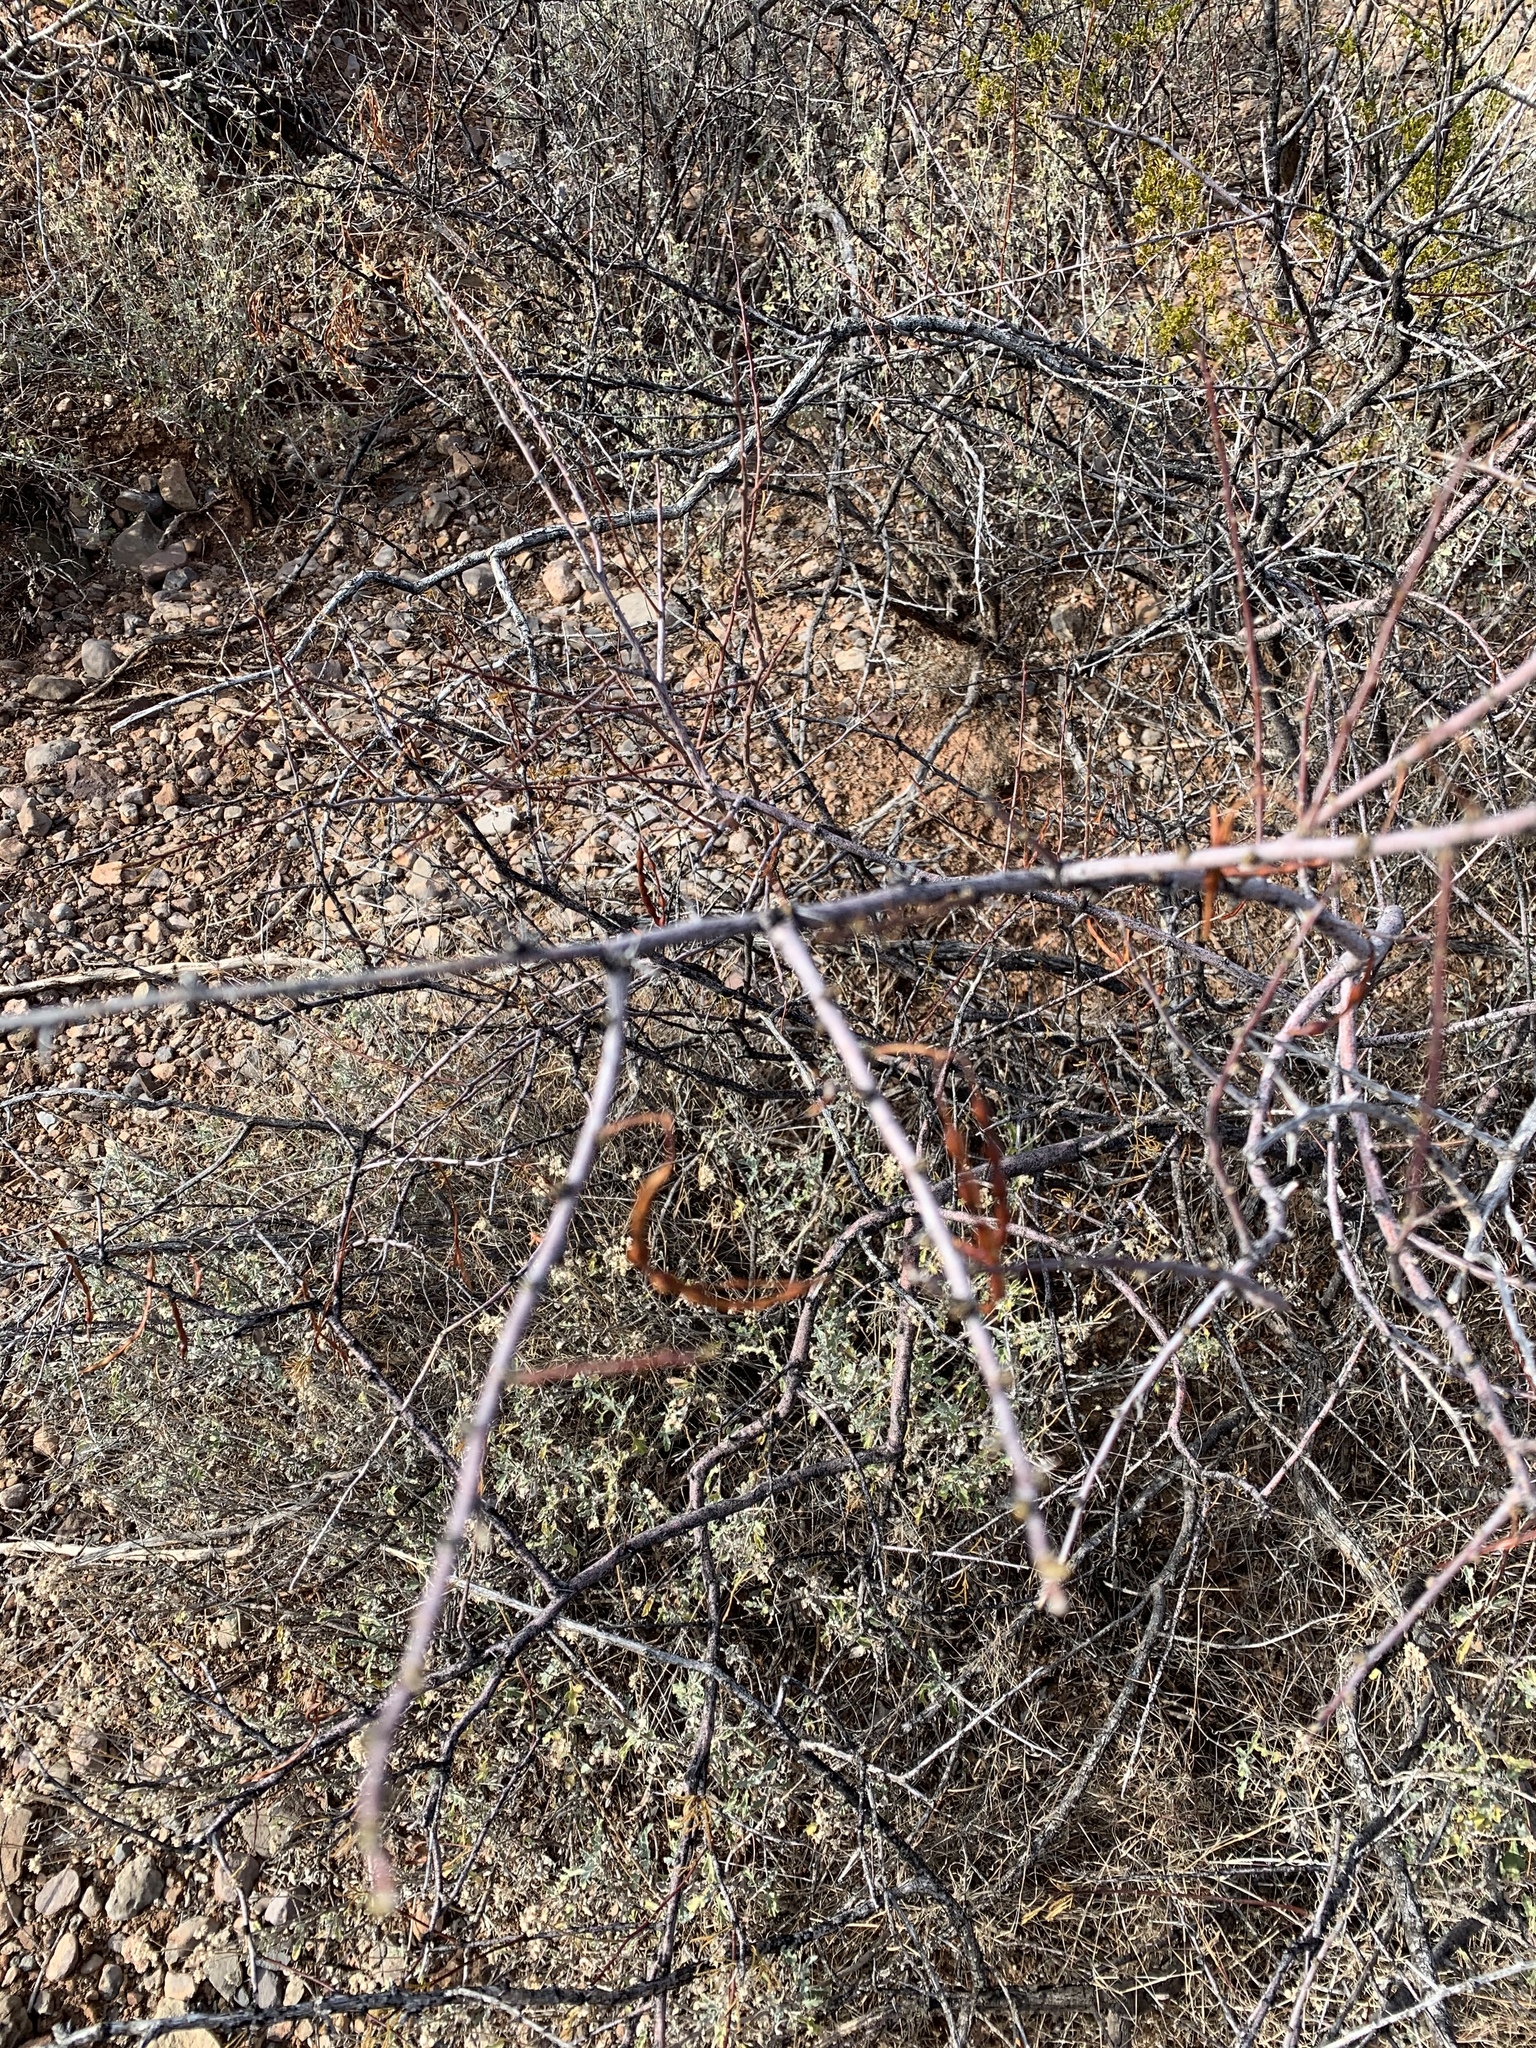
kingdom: Plantae
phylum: Tracheophyta
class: Magnoliopsida
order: Fabales
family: Fabaceae
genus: Vachellia
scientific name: Vachellia constricta
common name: Mescat acacia
